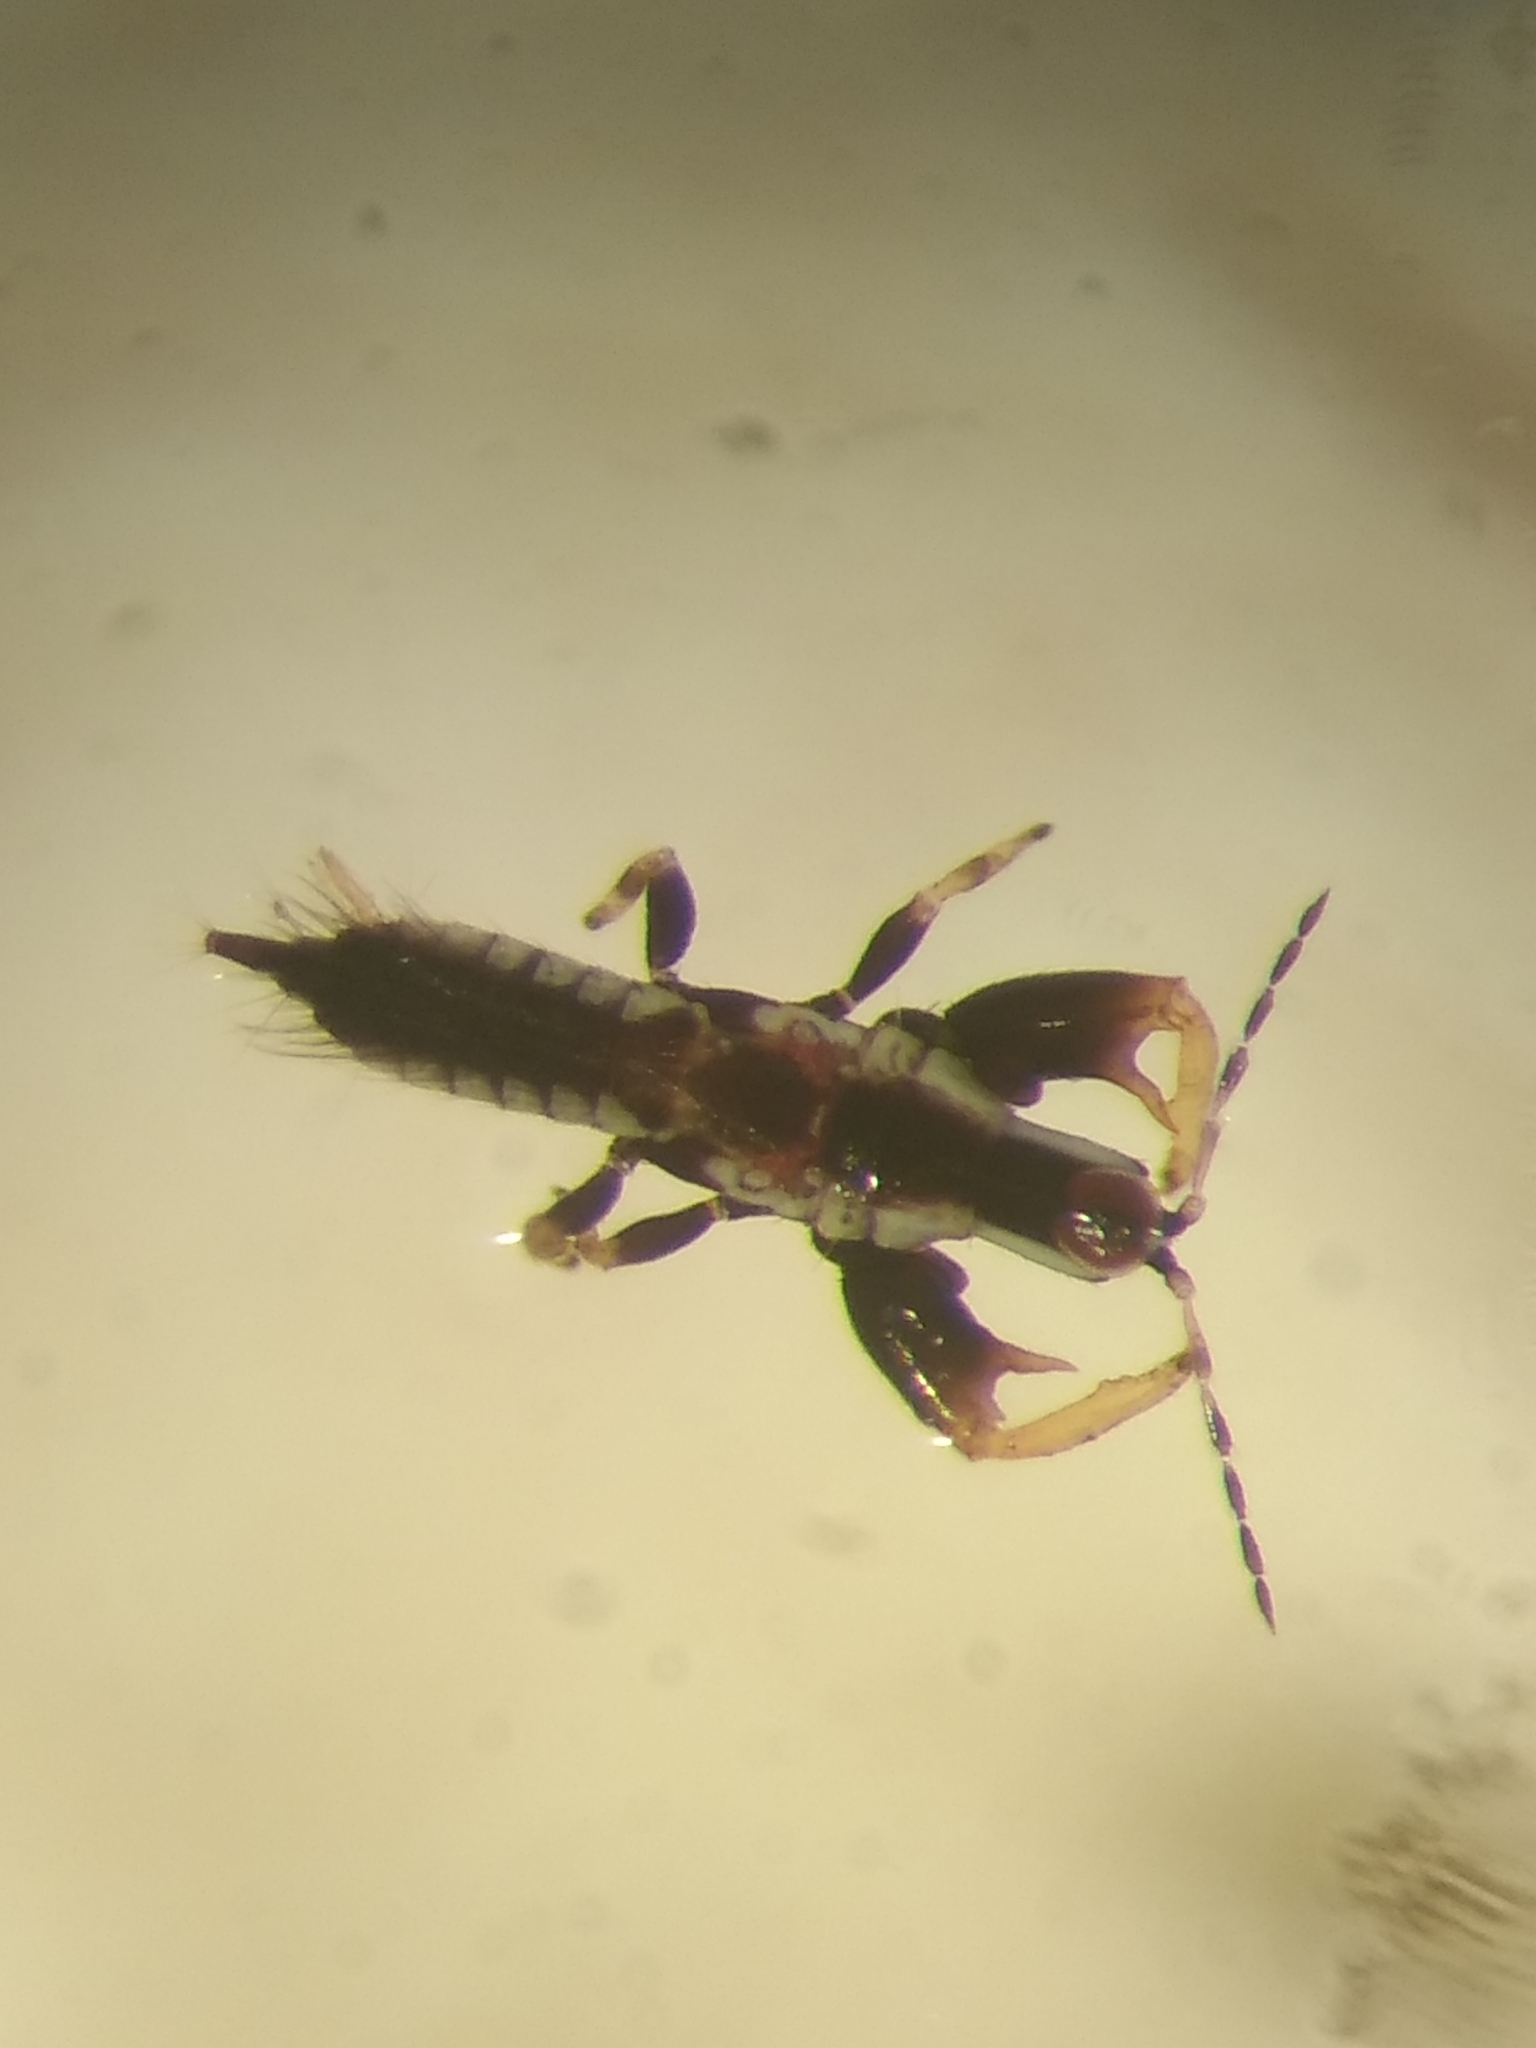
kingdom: Animalia
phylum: Arthropoda
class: Insecta
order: Thysanoptera
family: Phlaeothripidae
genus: Macrophthalmothrips
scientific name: Macrophthalmothrips argus
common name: Thrip
